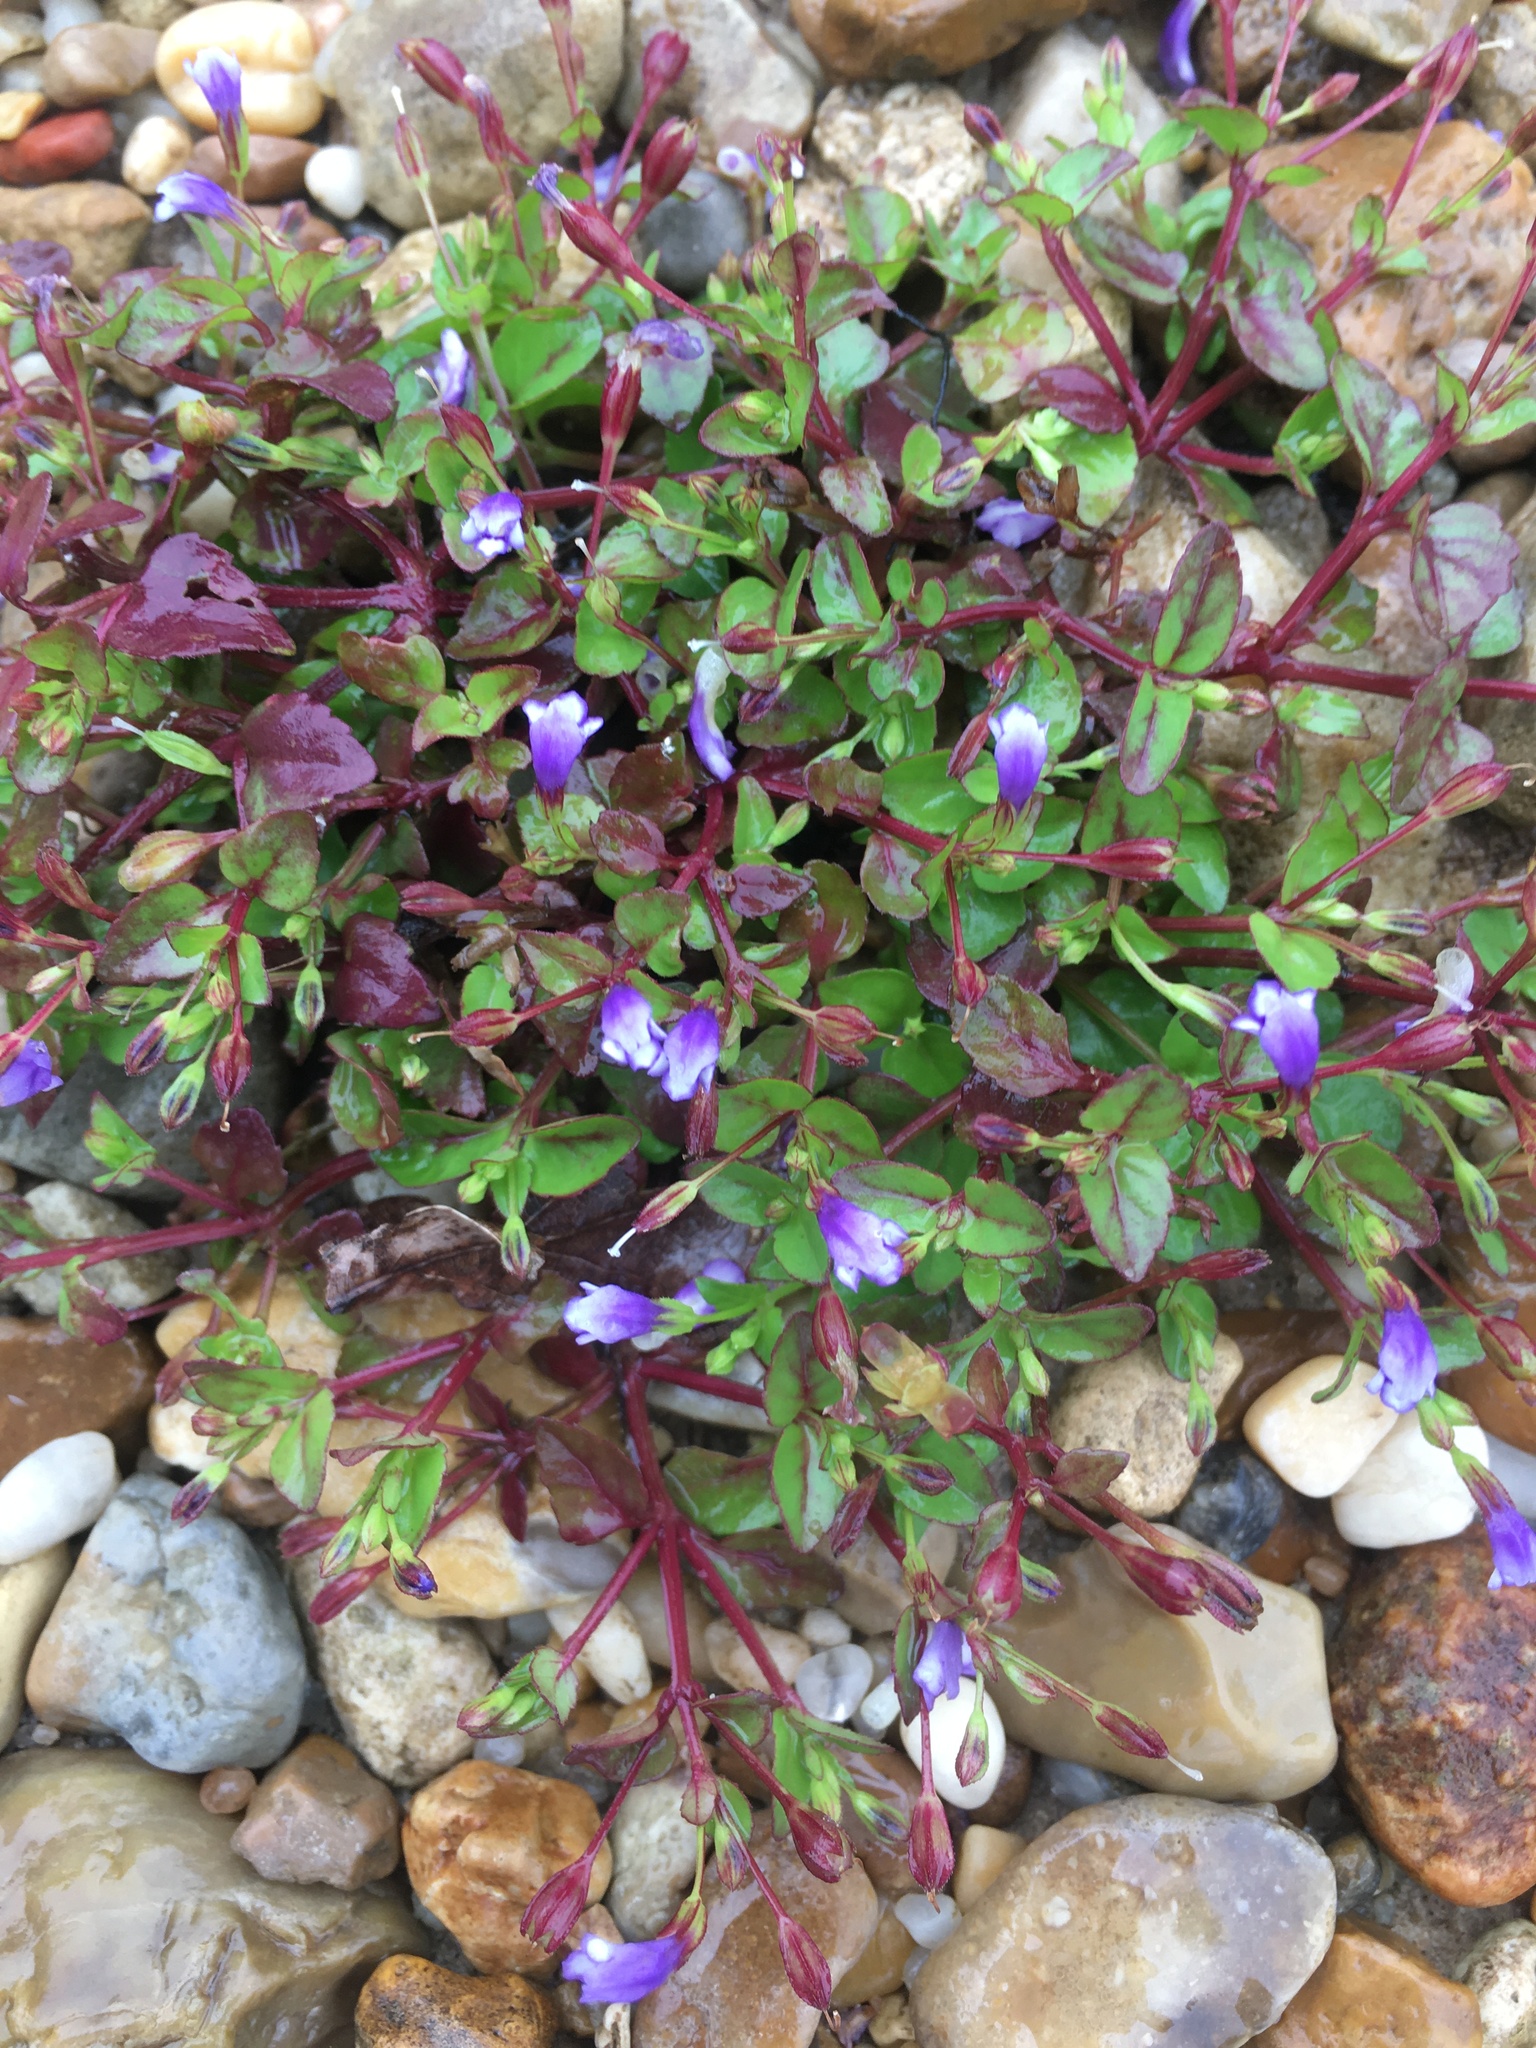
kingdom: Plantae
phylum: Tracheophyta
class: Magnoliopsida
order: Lamiales
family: Linderniaceae
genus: Torenia
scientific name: Torenia crustacea
